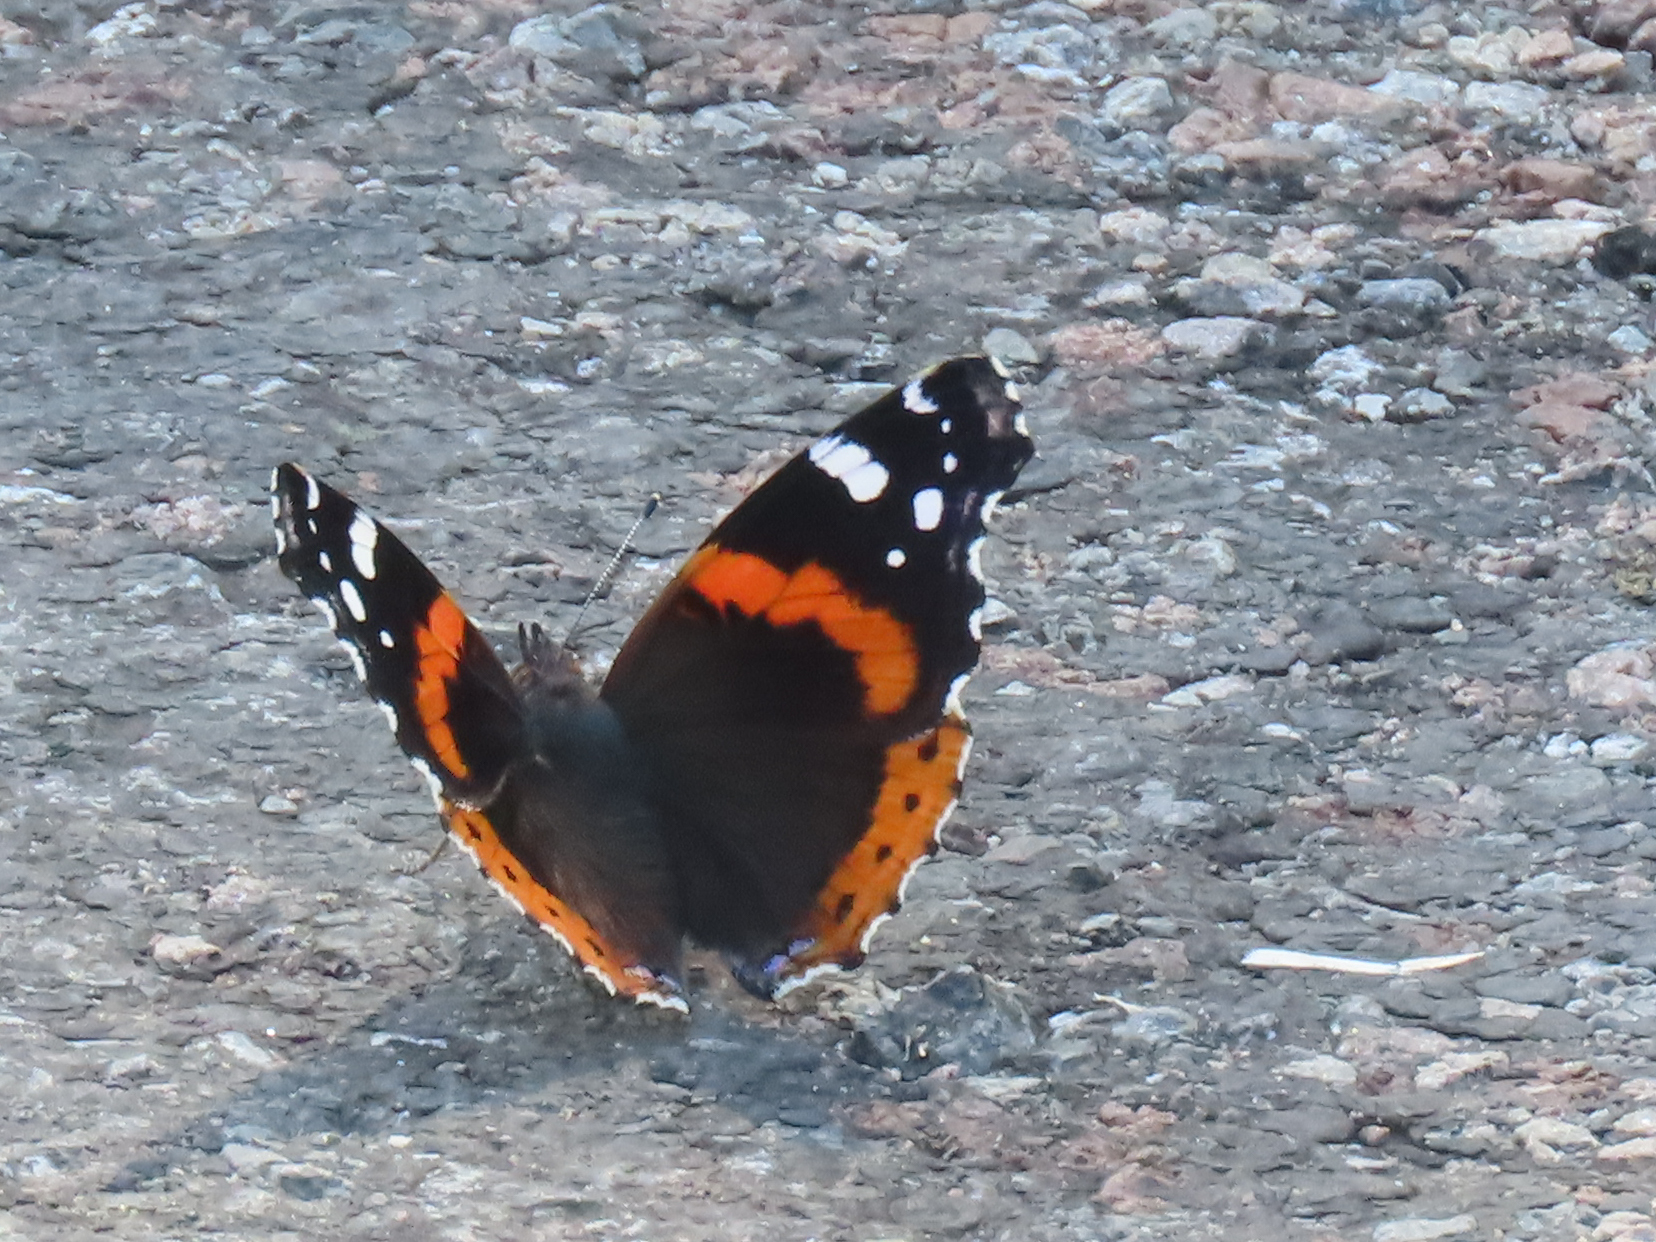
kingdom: Animalia
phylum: Arthropoda
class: Insecta
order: Lepidoptera
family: Nymphalidae
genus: Vanessa
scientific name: Vanessa atalanta
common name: Red admiral
